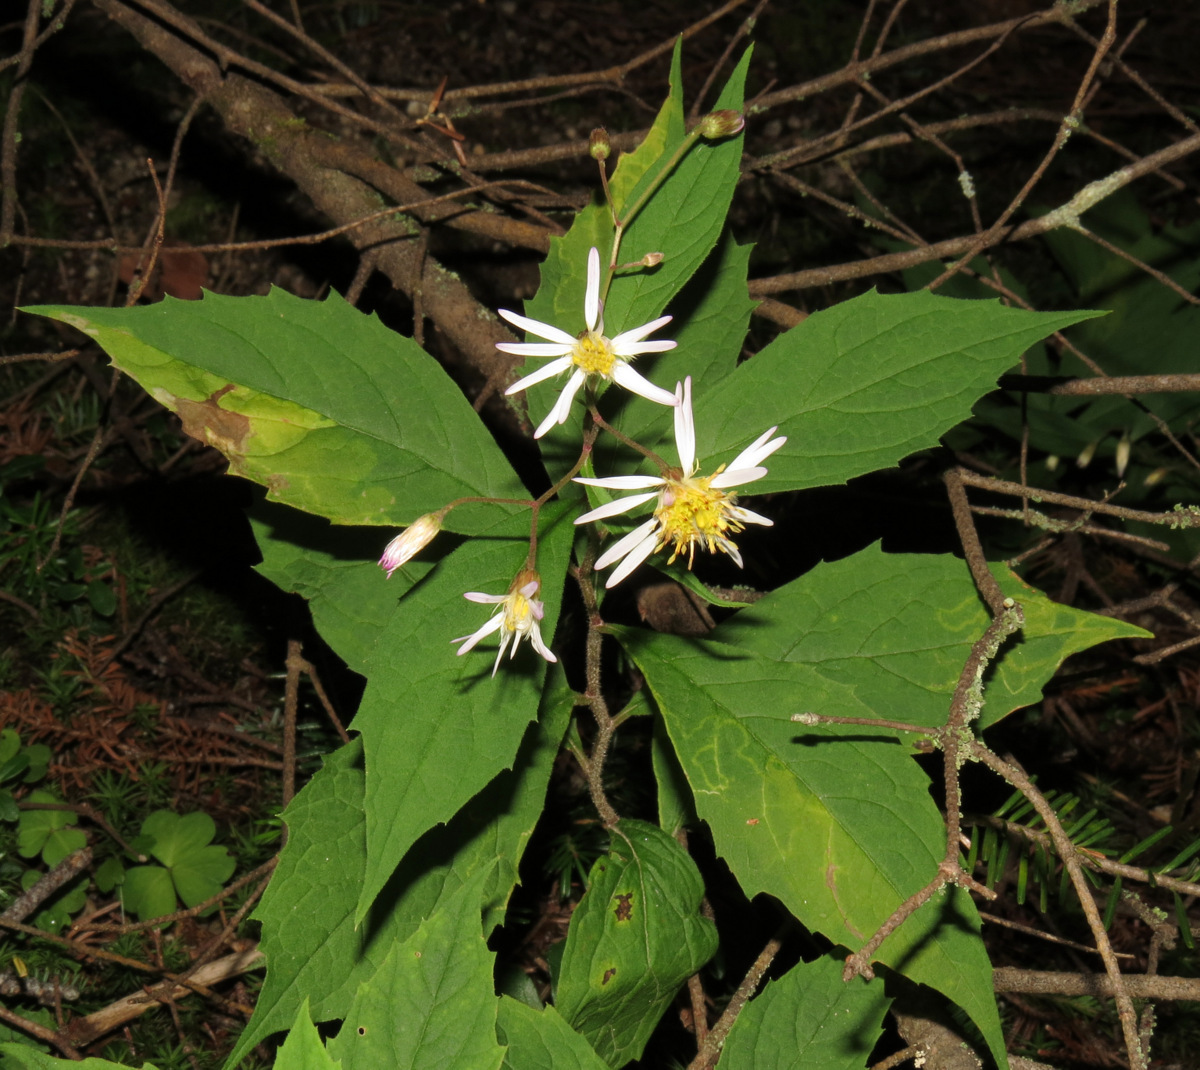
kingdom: Plantae
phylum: Tracheophyta
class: Magnoliopsida
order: Asterales
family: Asteraceae
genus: Oclemena
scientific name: Oclemena acuminata
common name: Mountain aster
